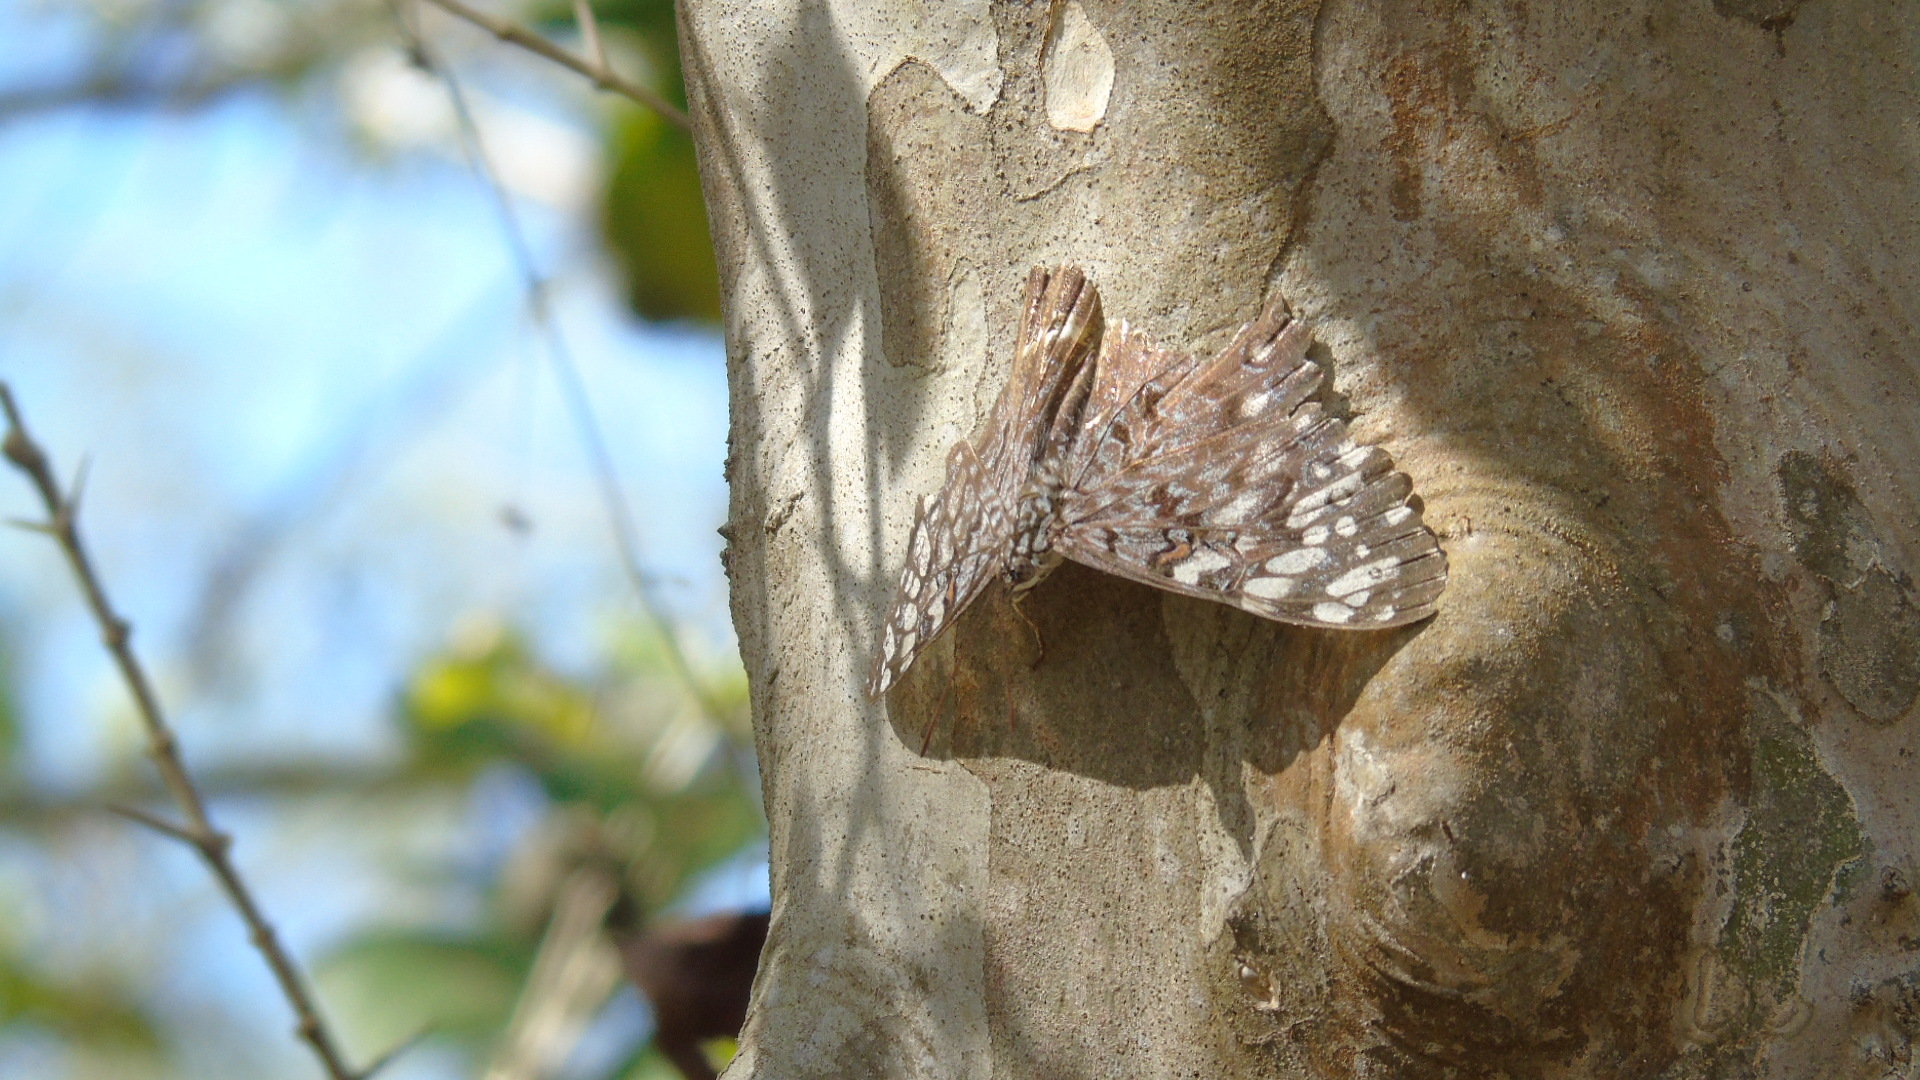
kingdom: Animalia
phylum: Arthropoda
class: Insecta
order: Lepidoptera
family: Nymphalidae
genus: Hamadryas
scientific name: Hamadryas
